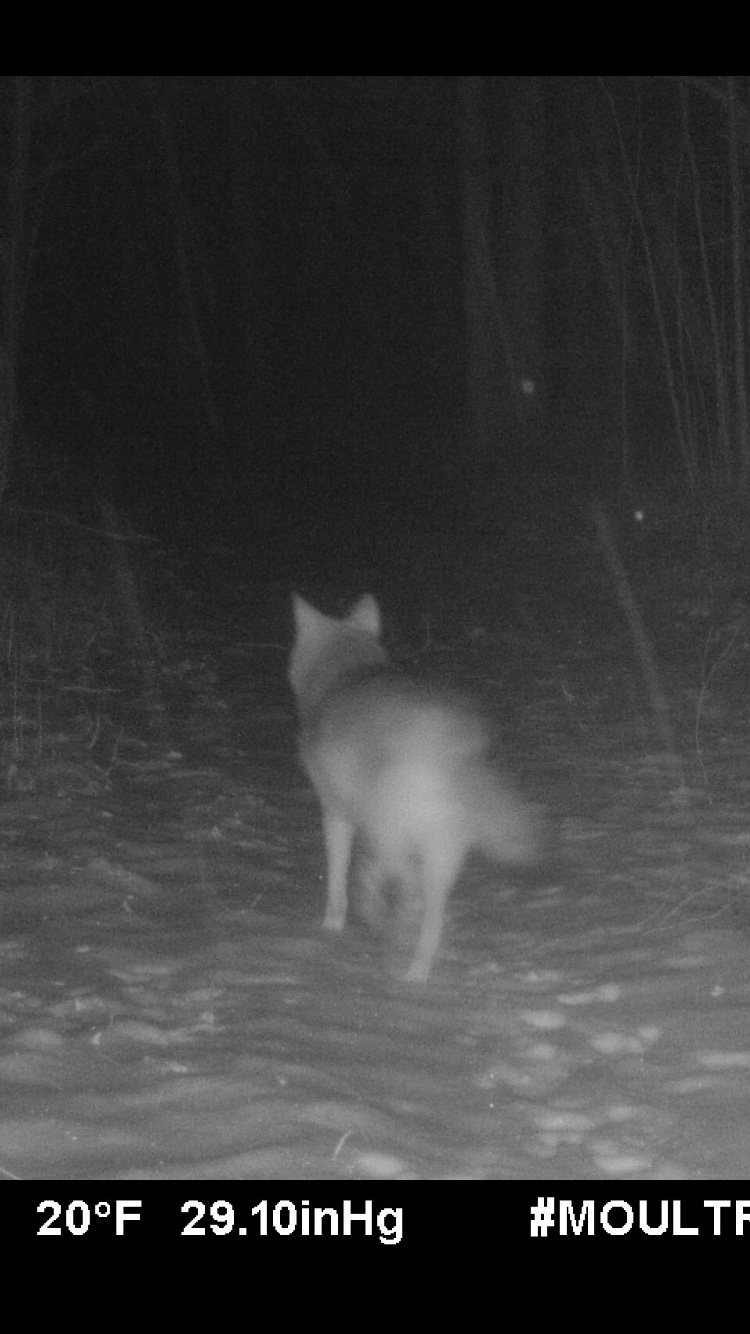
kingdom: Animalia
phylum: Chordata
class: Mammalia
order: Carnivora
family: Canidae
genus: Canis
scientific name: Canis latrans
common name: Coyote
